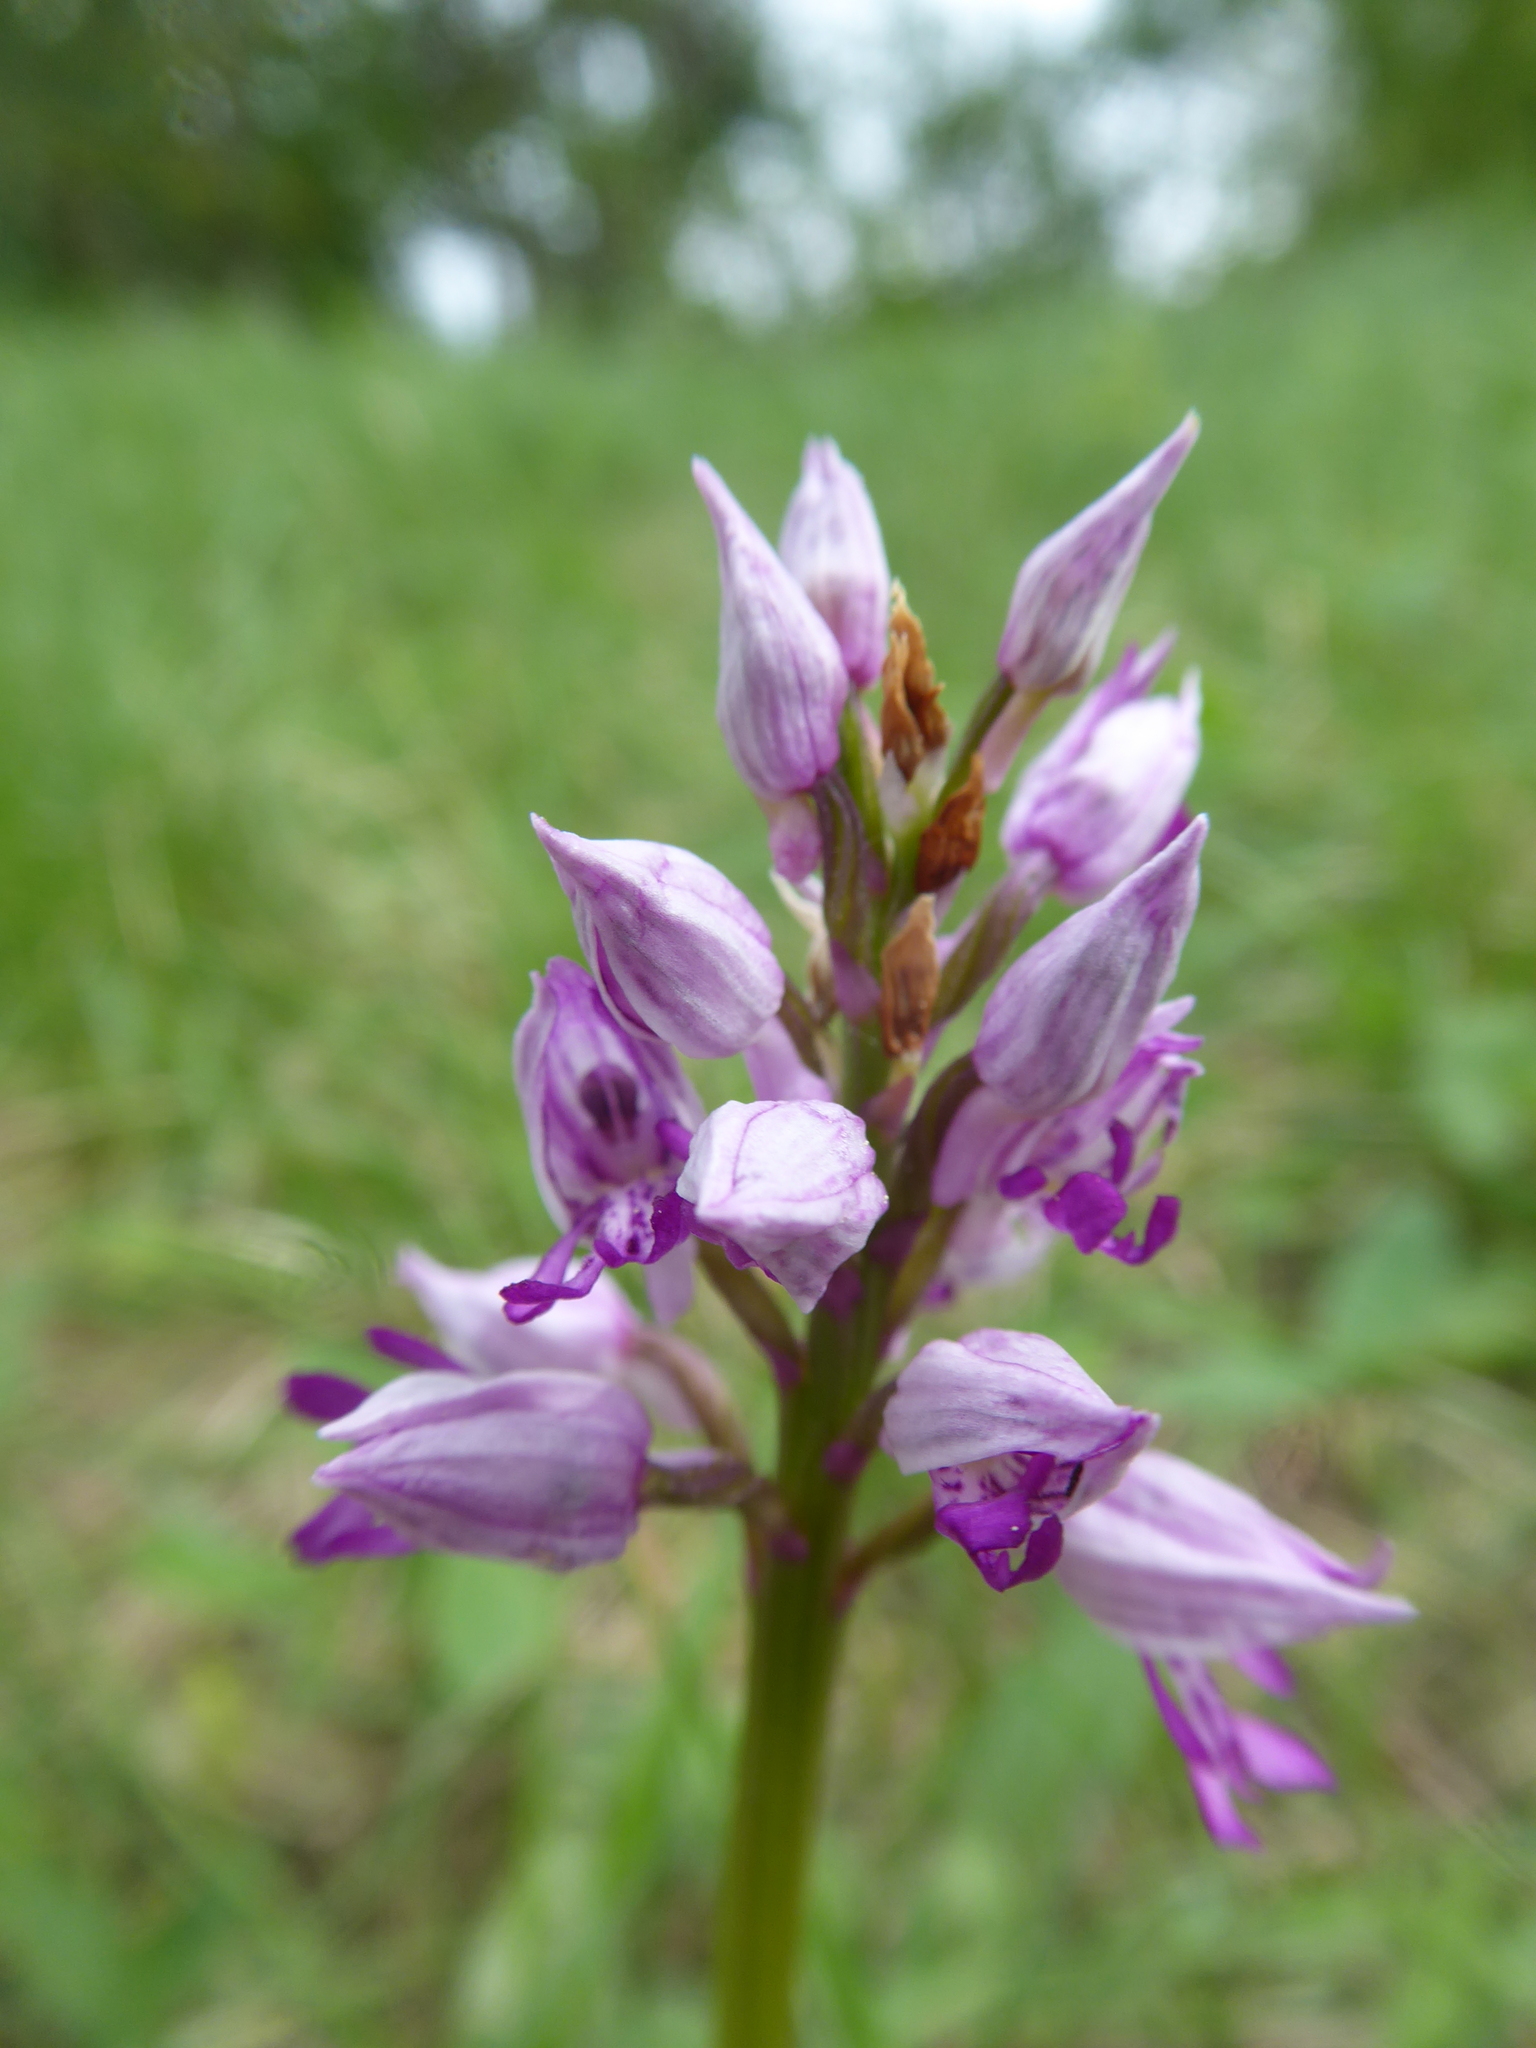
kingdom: Plantae
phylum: Tracheophyta
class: Liliopsida
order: Asparagales
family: Orchidaceae
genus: Orchis
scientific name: Orchis militaris
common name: Military orchid
